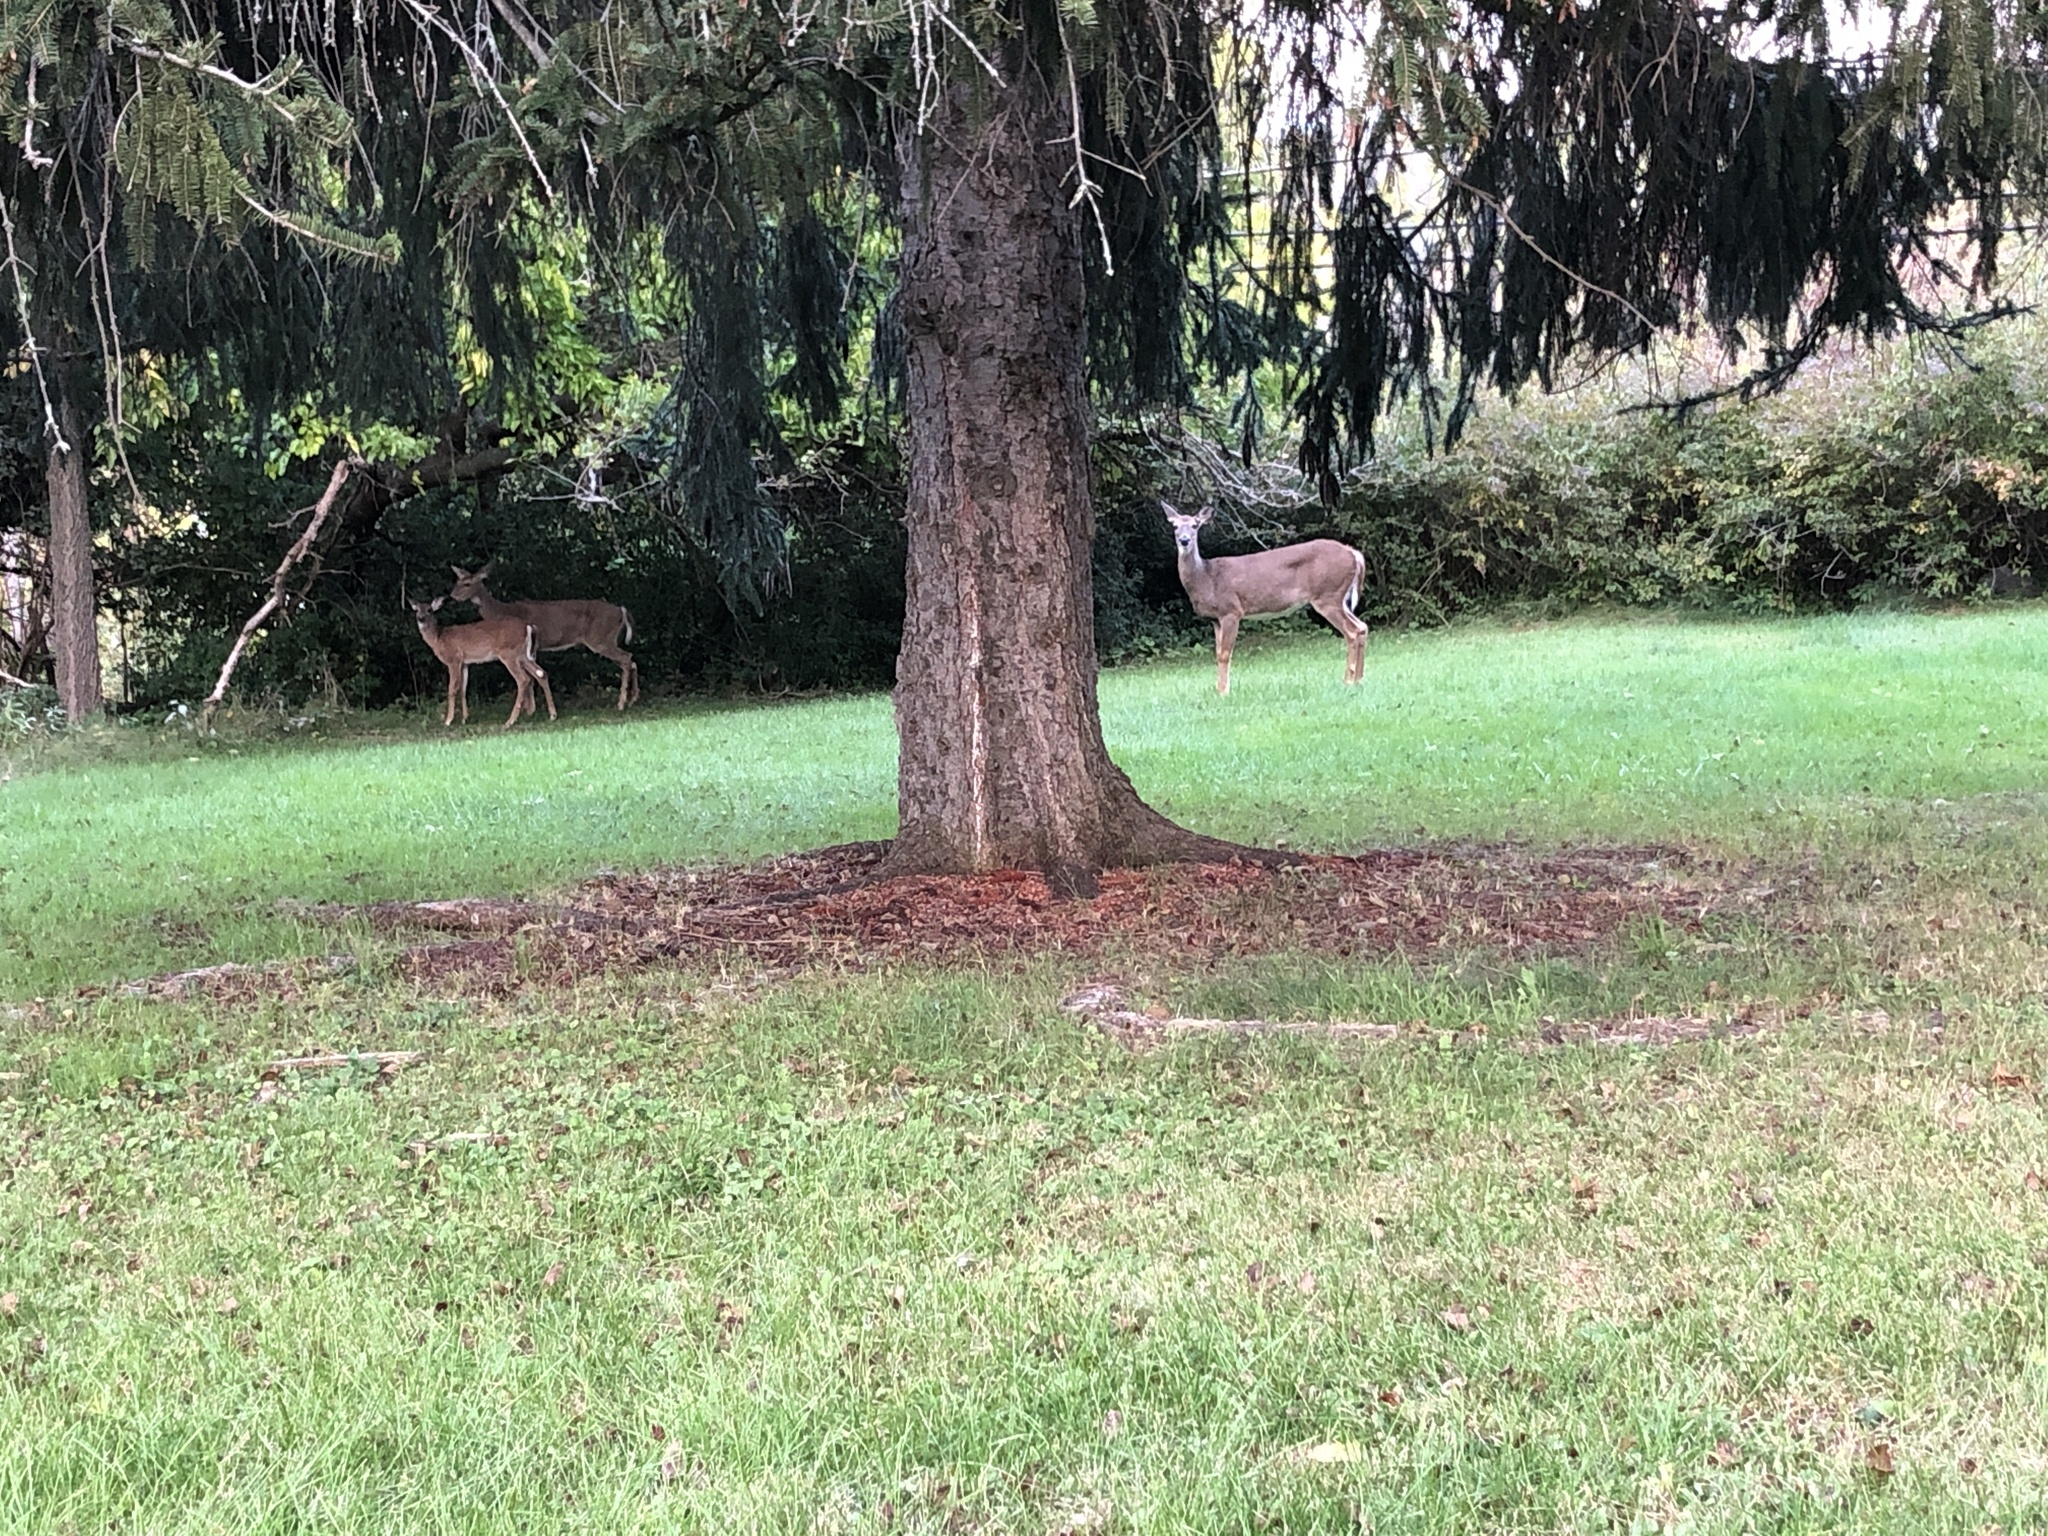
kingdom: Animalia
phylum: Chordata
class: Mammalia
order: Artiodactyla
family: Cervidae
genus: Odocoileus
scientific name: Odocoileus virginianus
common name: White-tailed deer
